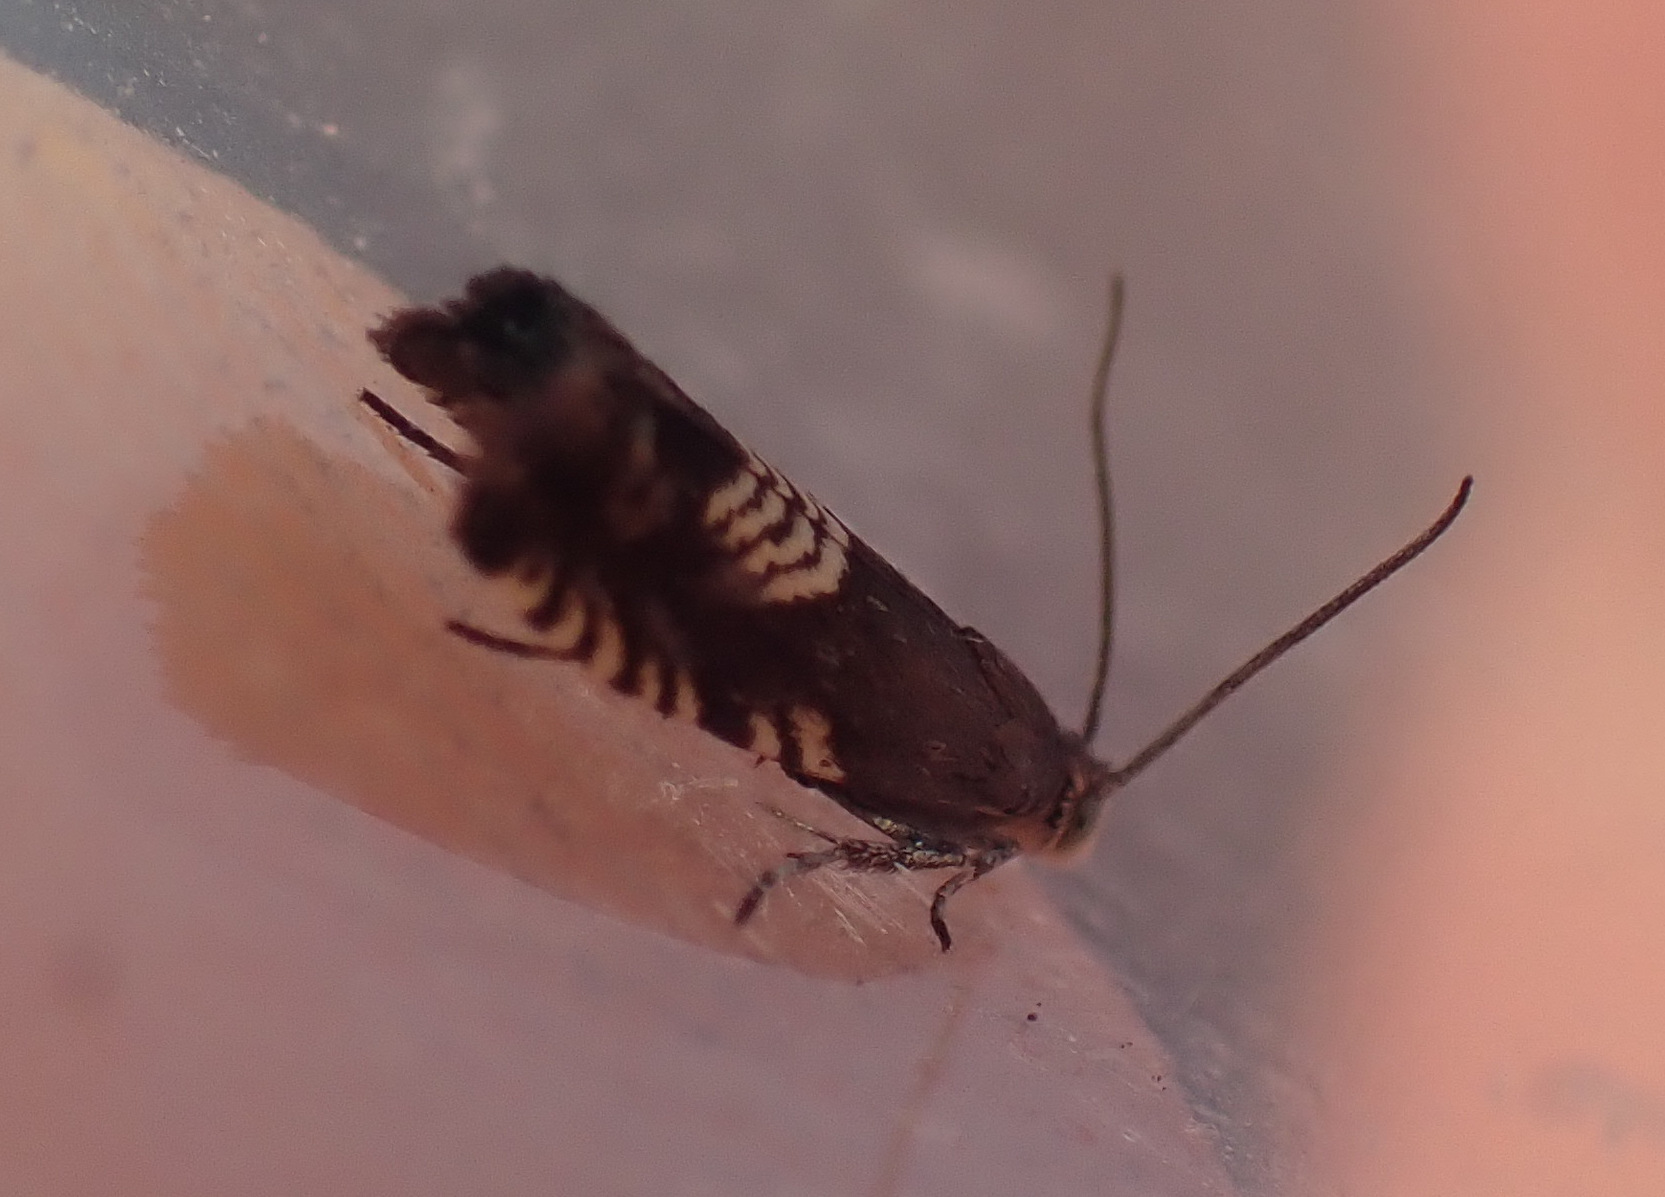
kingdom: Animalia
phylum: Arthropoda
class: Insecta
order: Lepidoptera
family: Tortricidae
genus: Grapholita
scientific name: Grapholita compositella
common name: Triple-stripe piercer
